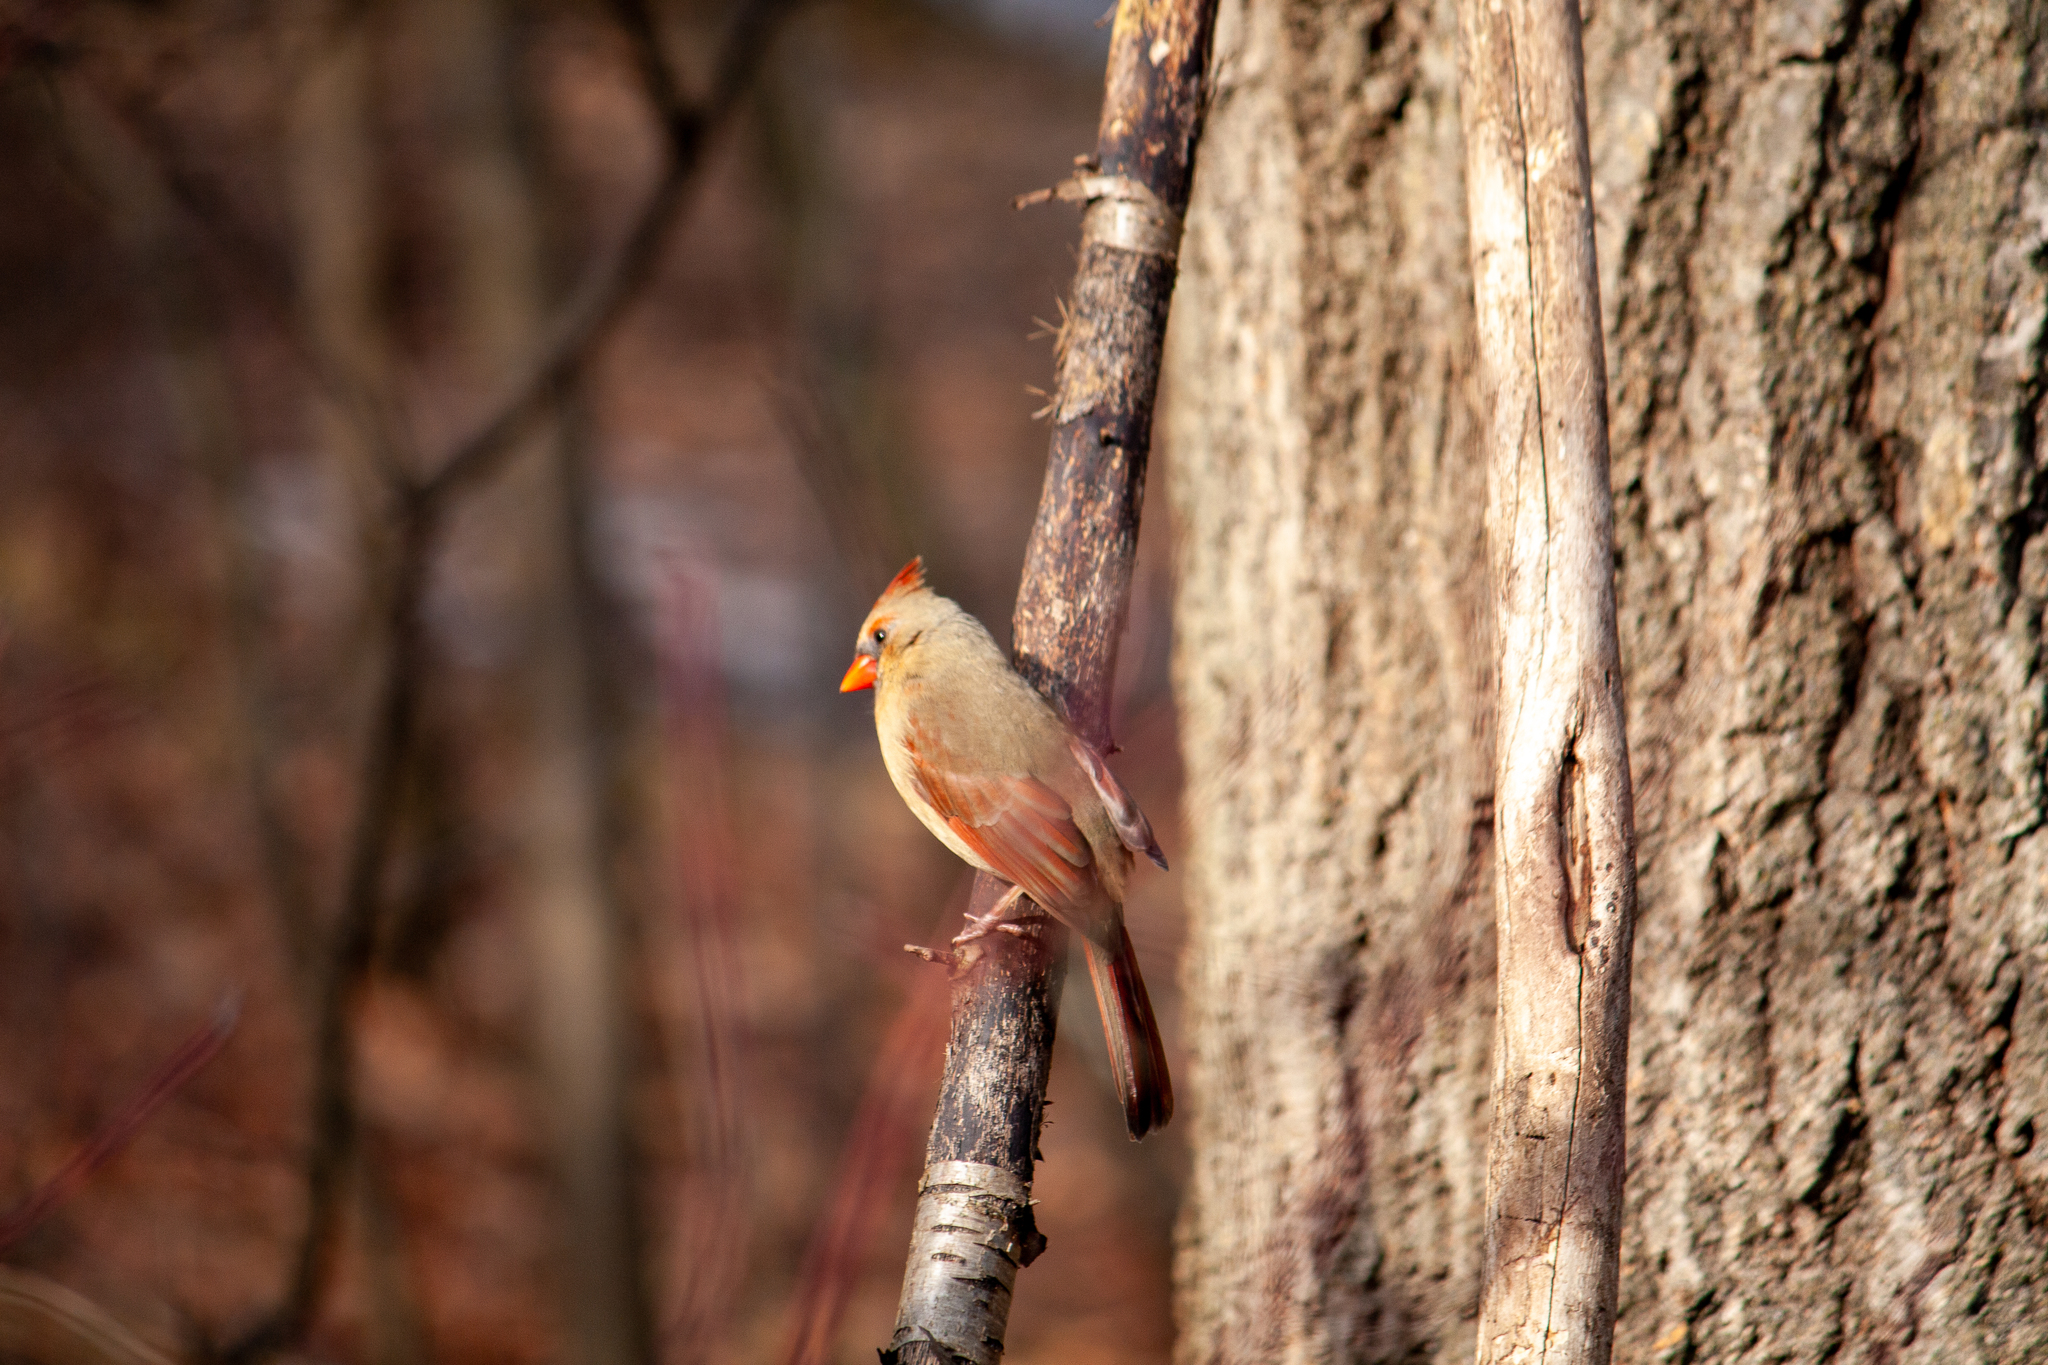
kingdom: Animalia
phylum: Chordata
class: Aves
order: Passeriformes
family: Cardinalidae
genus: Cardinalis
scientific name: Cardinalis cardinalis
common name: Northern cardinal
